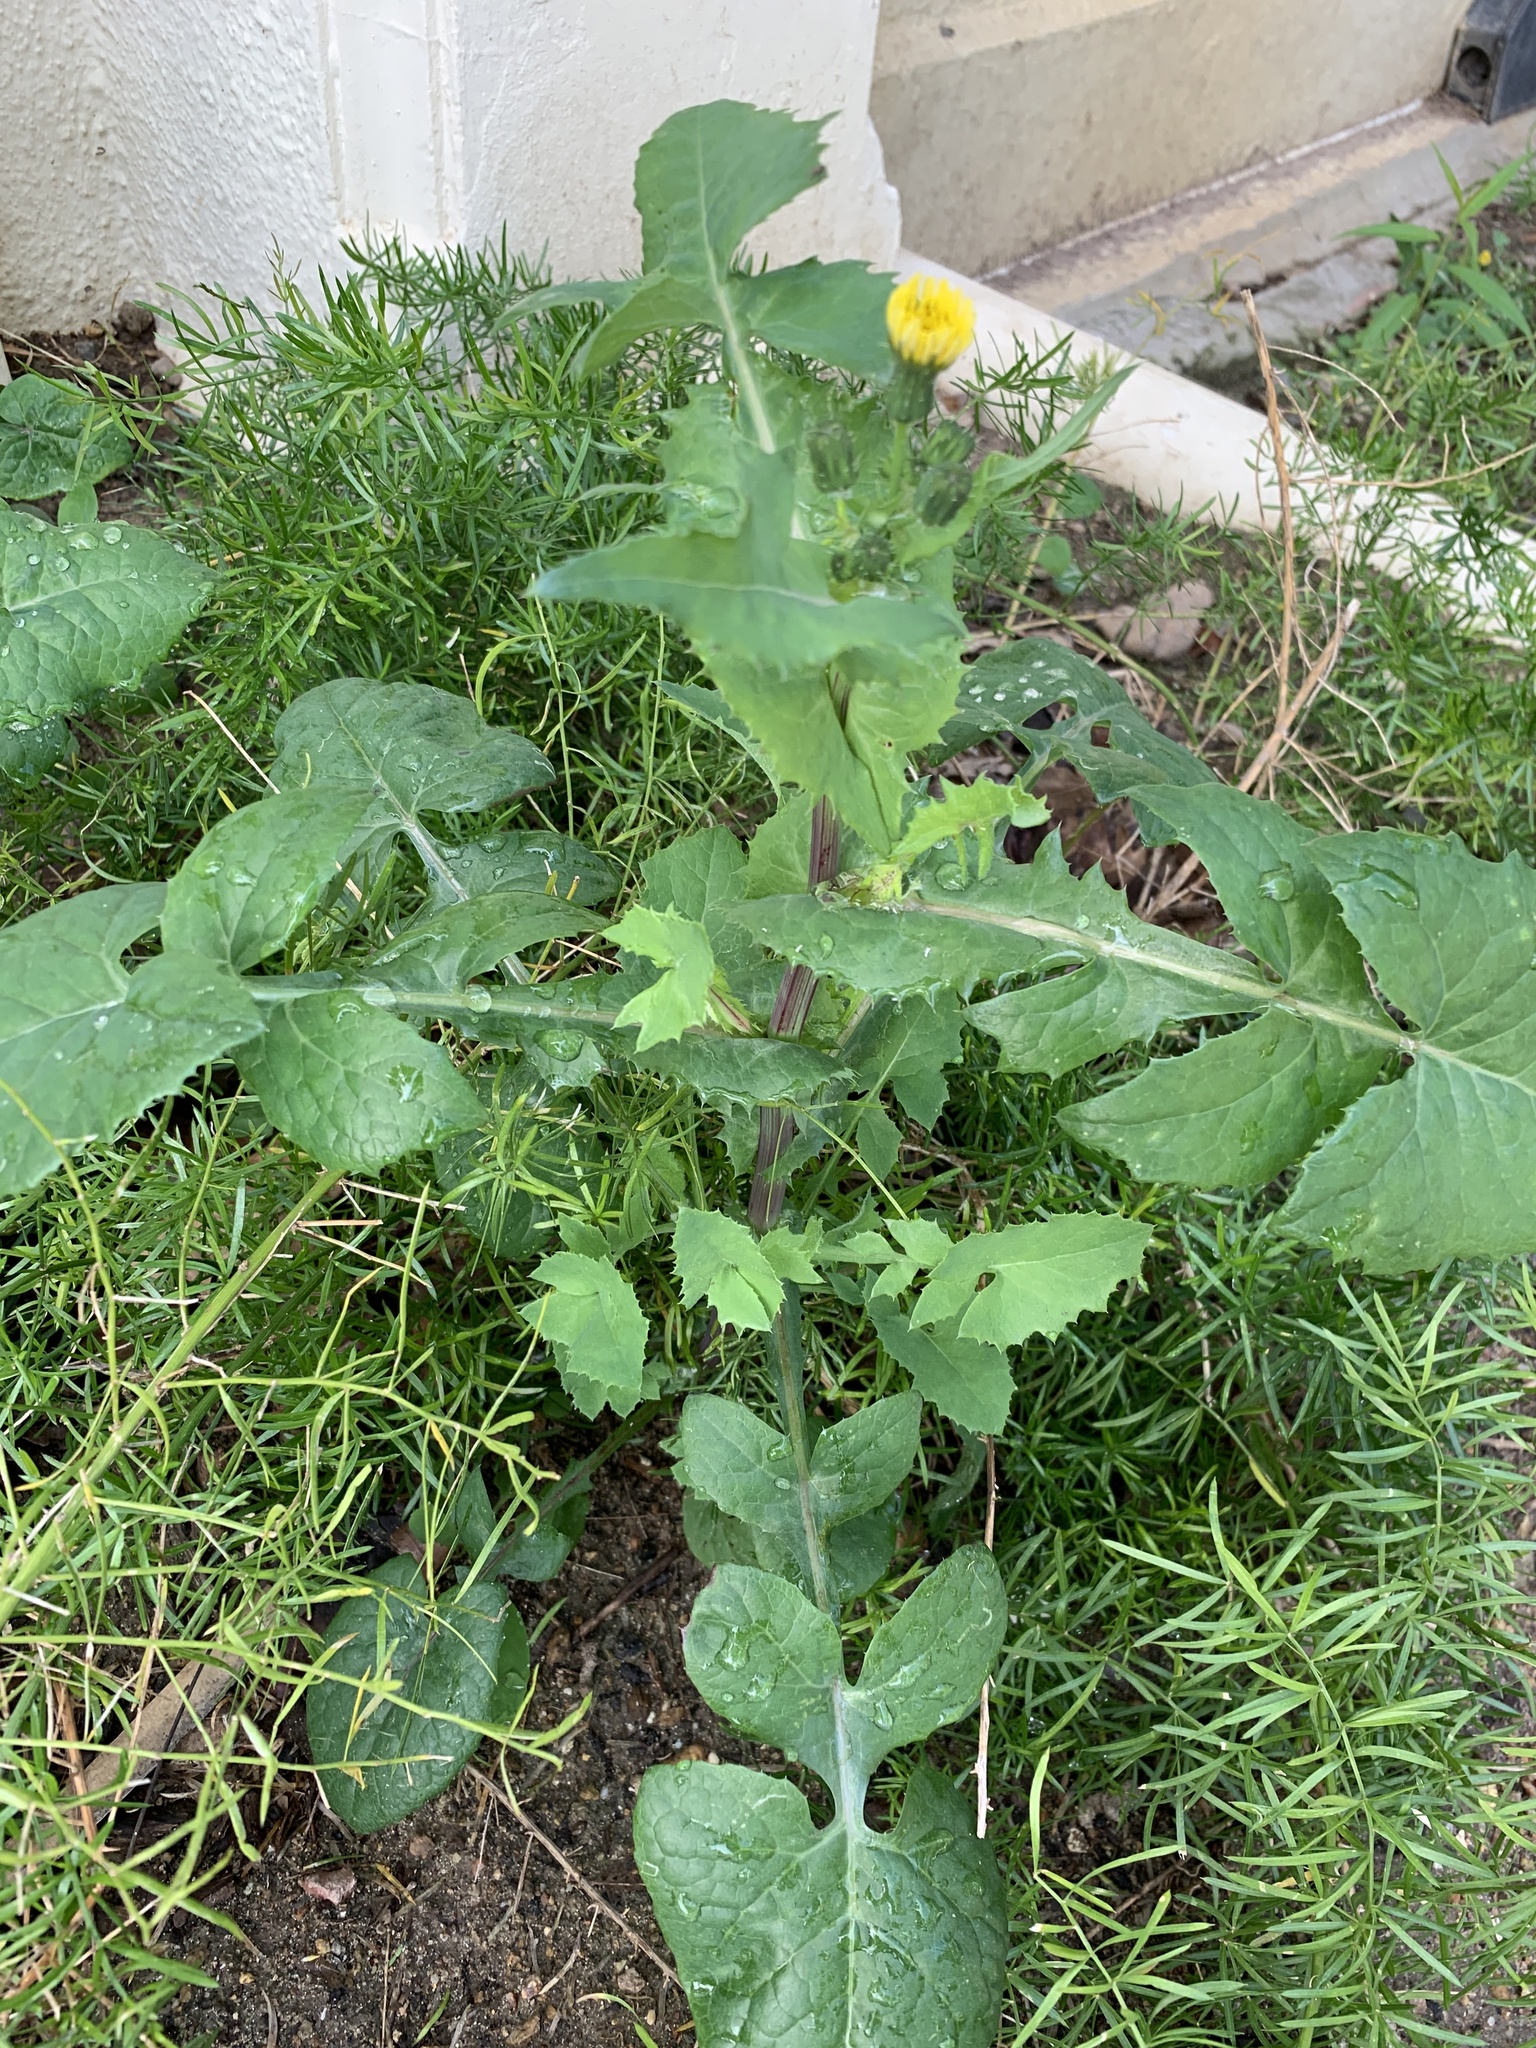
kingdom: Plantae
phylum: Tracheophyta
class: Magnoliopsida
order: Asterales
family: Asteraceae
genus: Sonchus
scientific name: Sonchus oleraceus
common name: Common sowthistle
